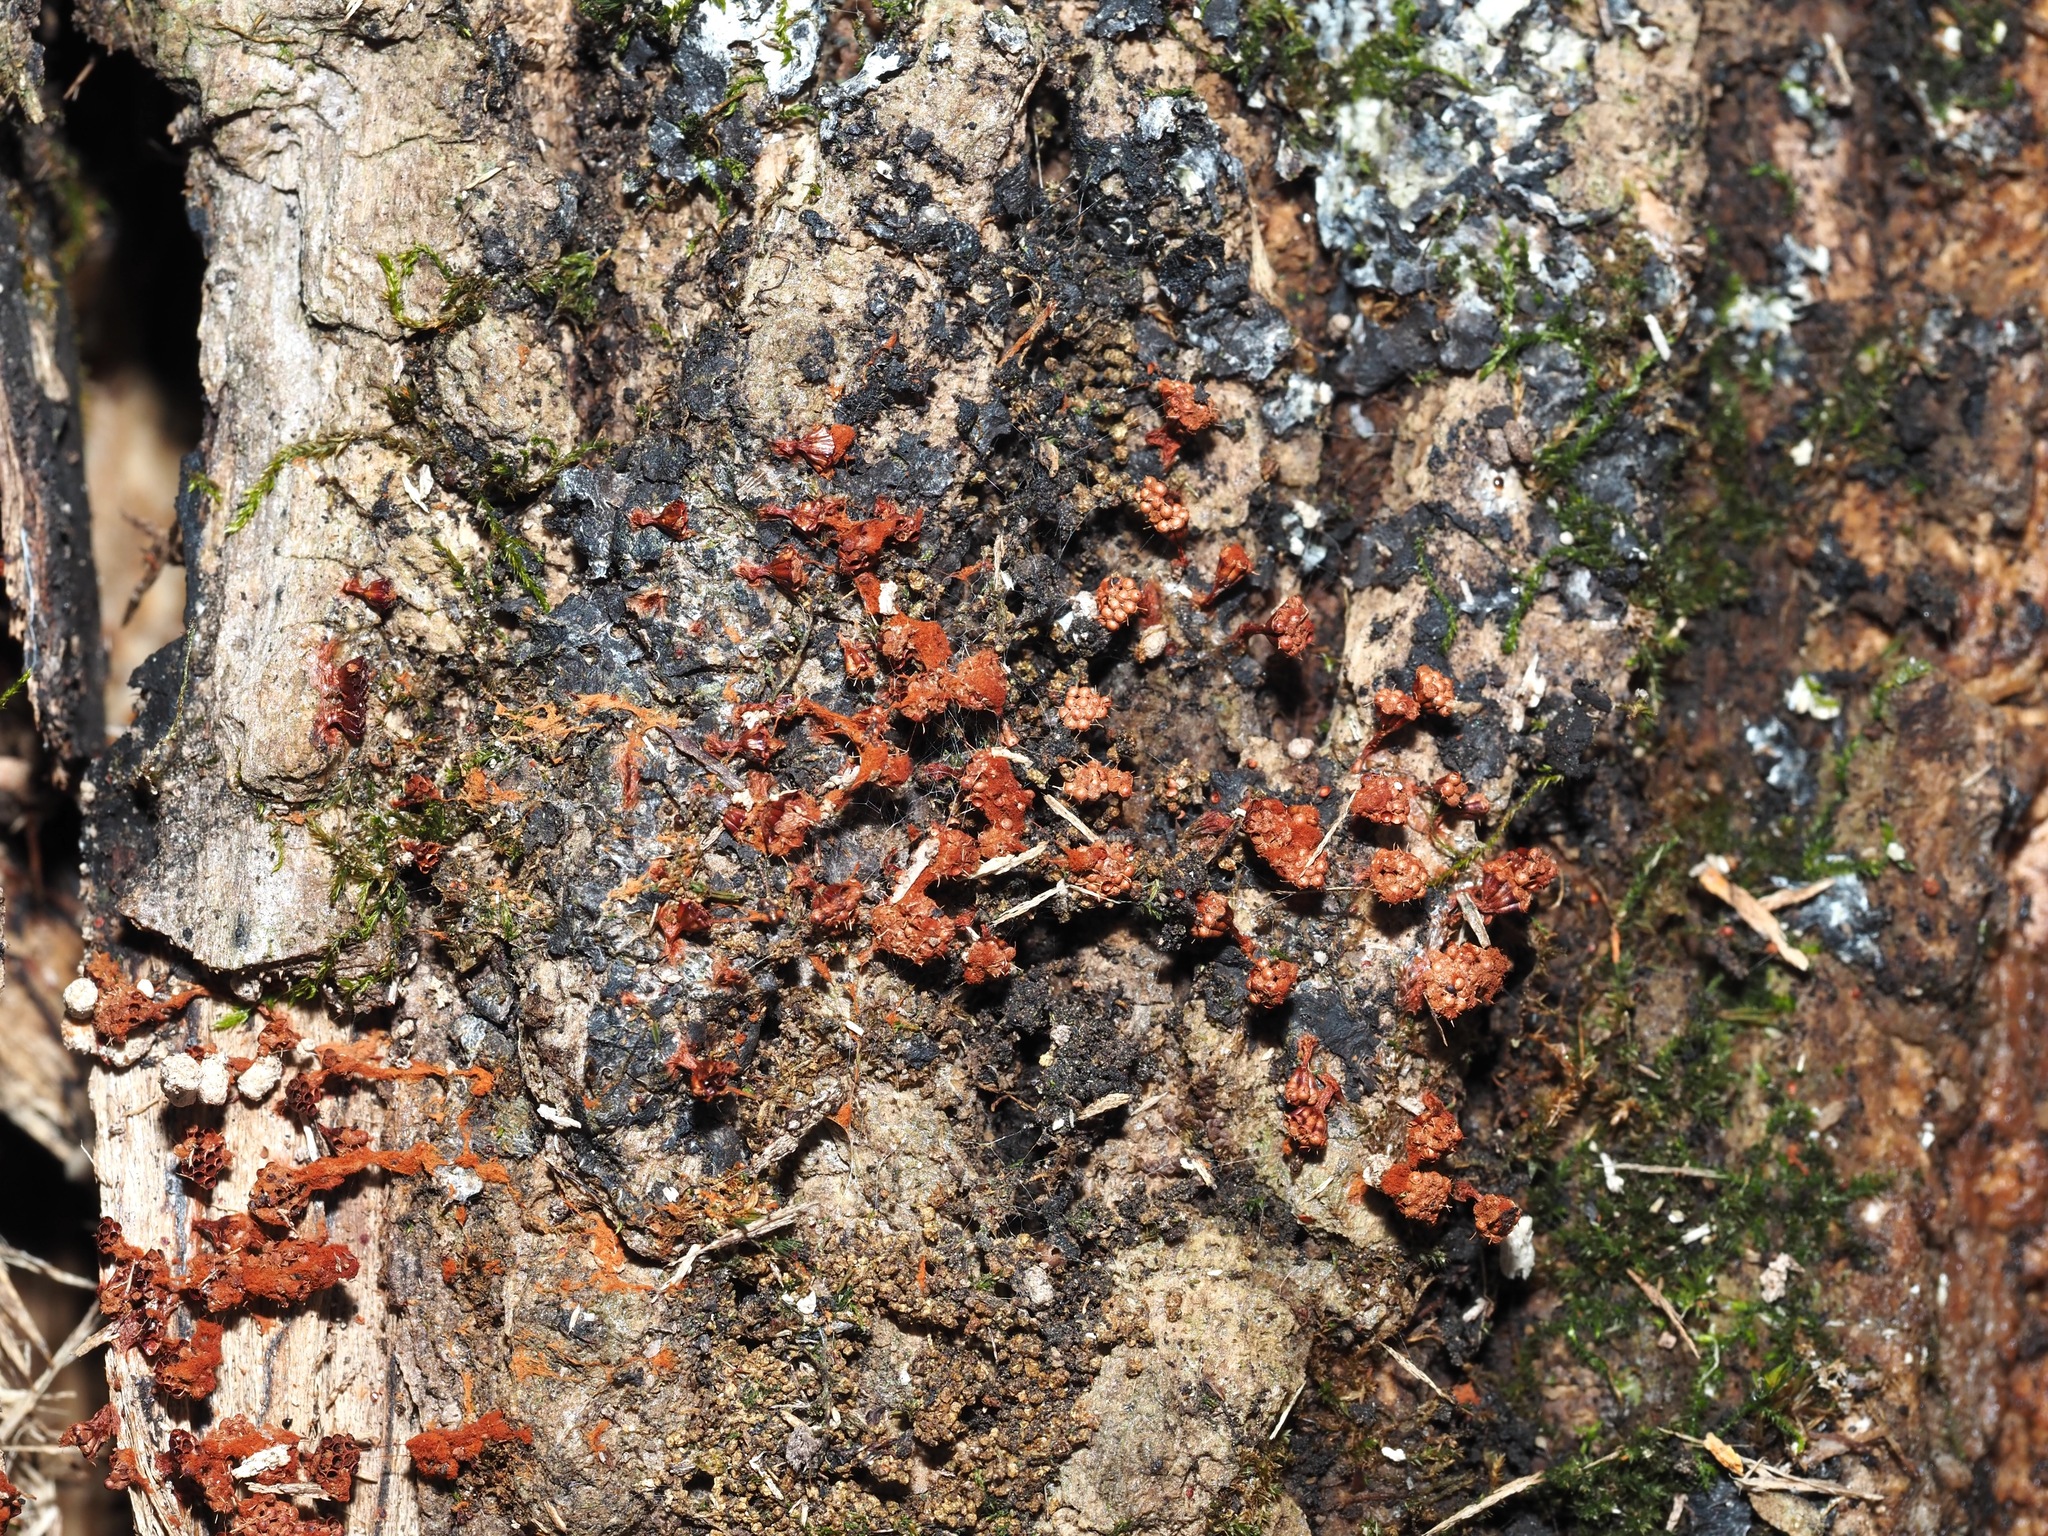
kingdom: Protozoa
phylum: Mycetozoa
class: Myxomycetes
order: Trichiales
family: Trichiaceae
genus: Metatrichia
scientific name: Metatrichia vesparia
